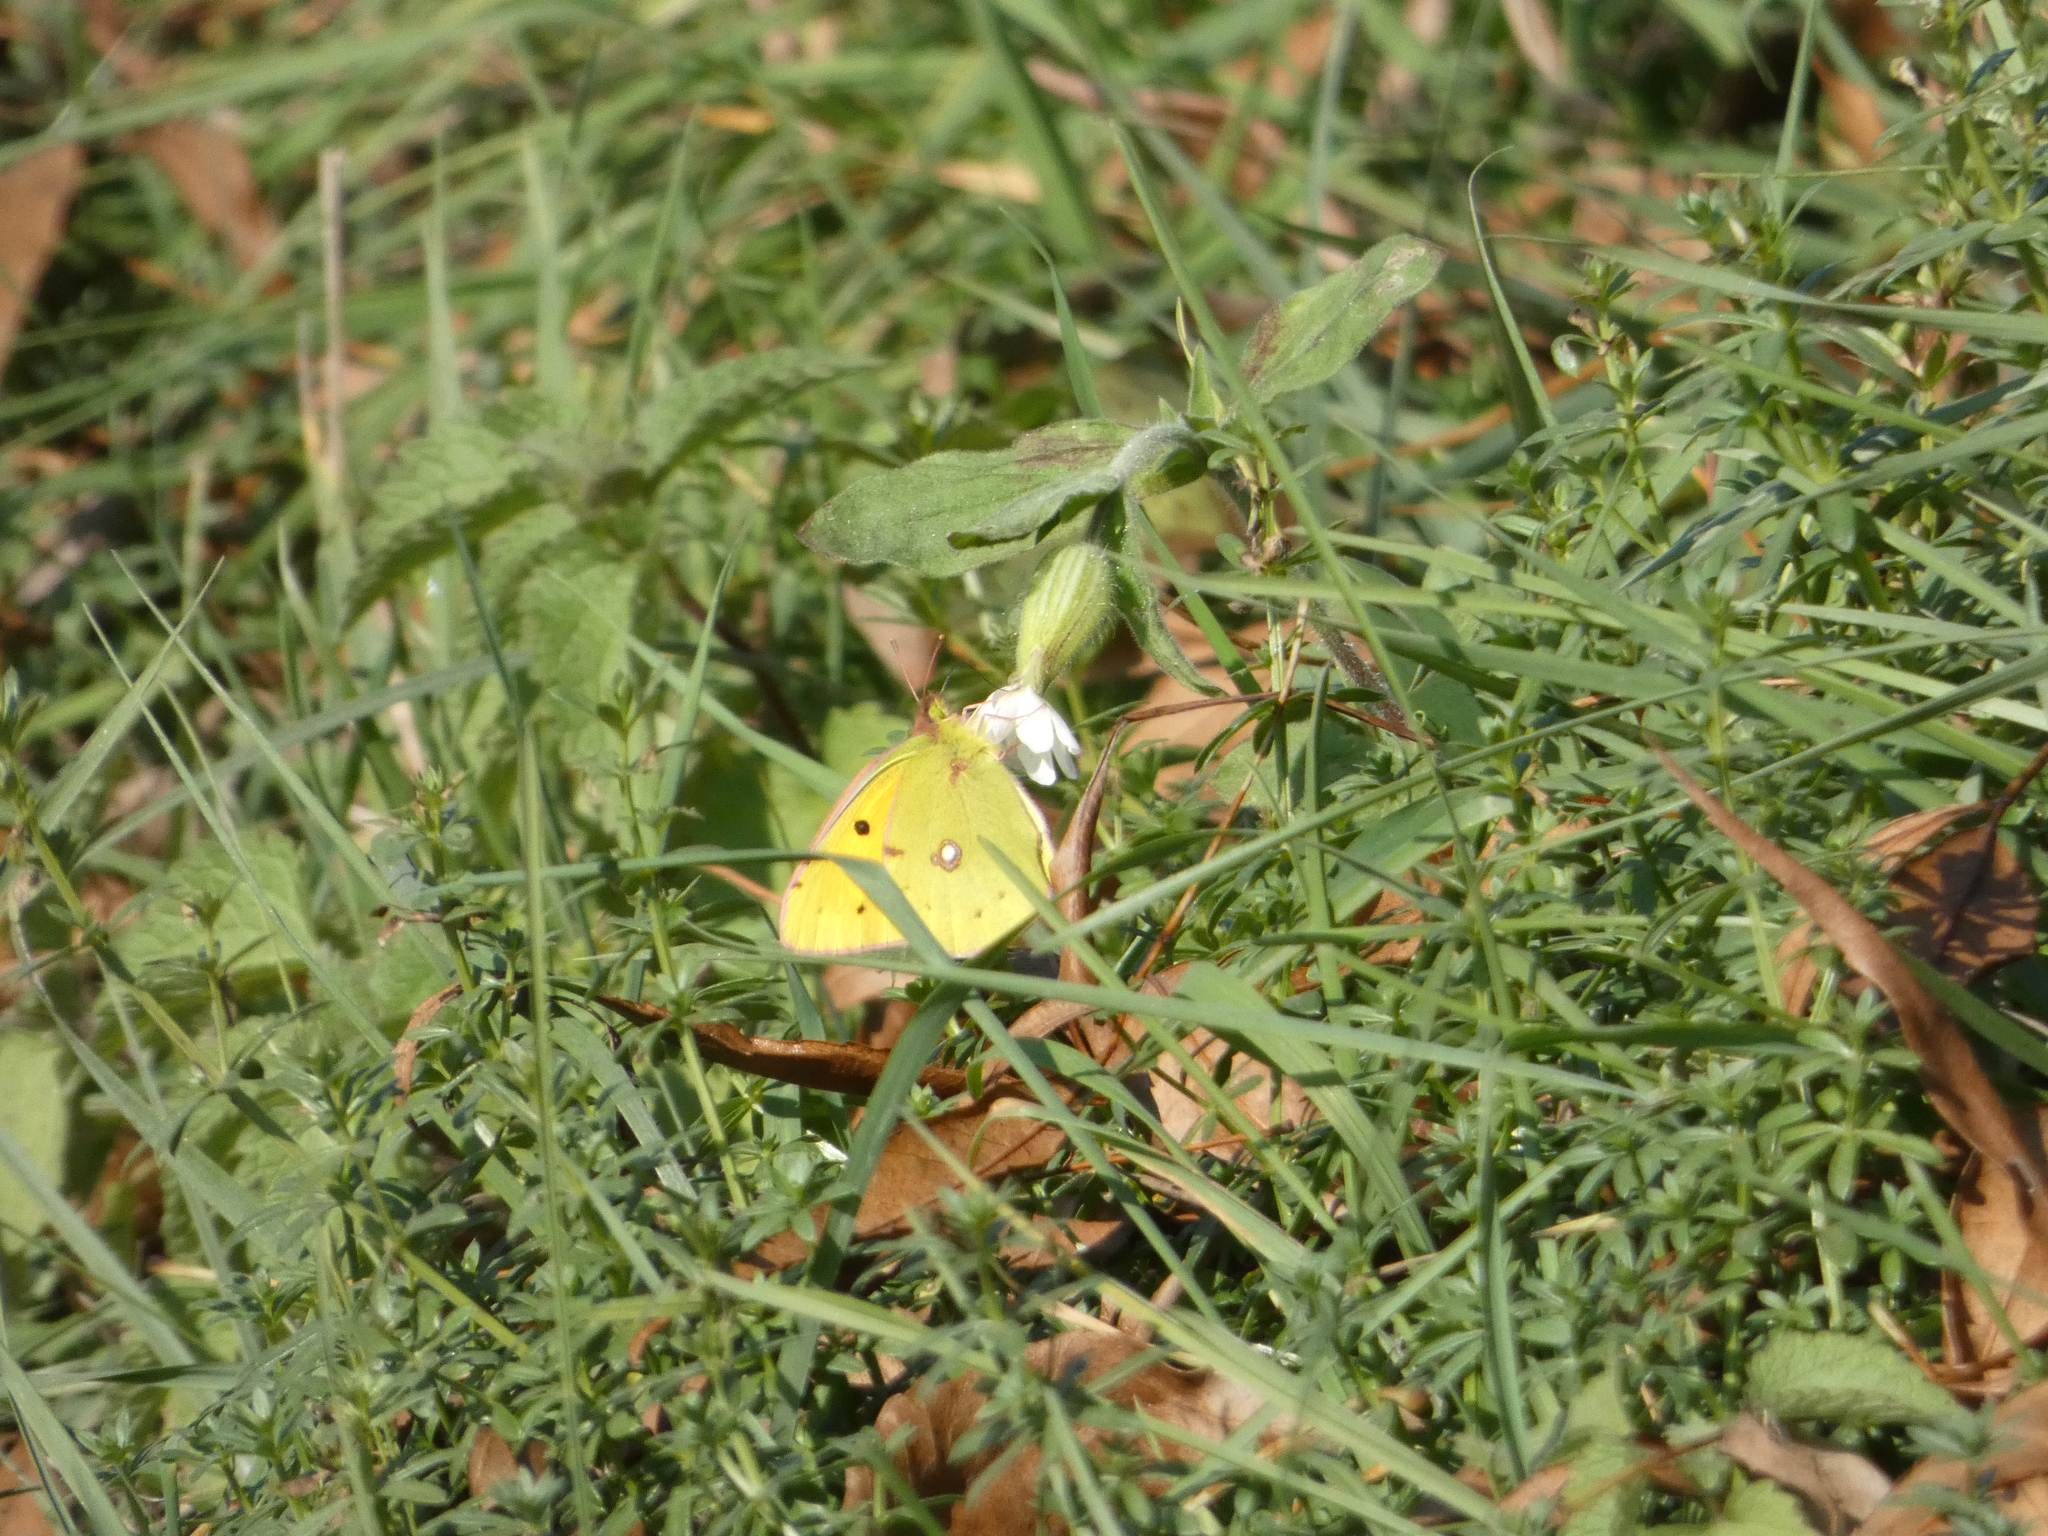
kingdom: Animalia
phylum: Arthropoda
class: Insecta
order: Lepidoptera
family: Pieridae
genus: Colias
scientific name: Colias croceus
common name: Clouded yellow
